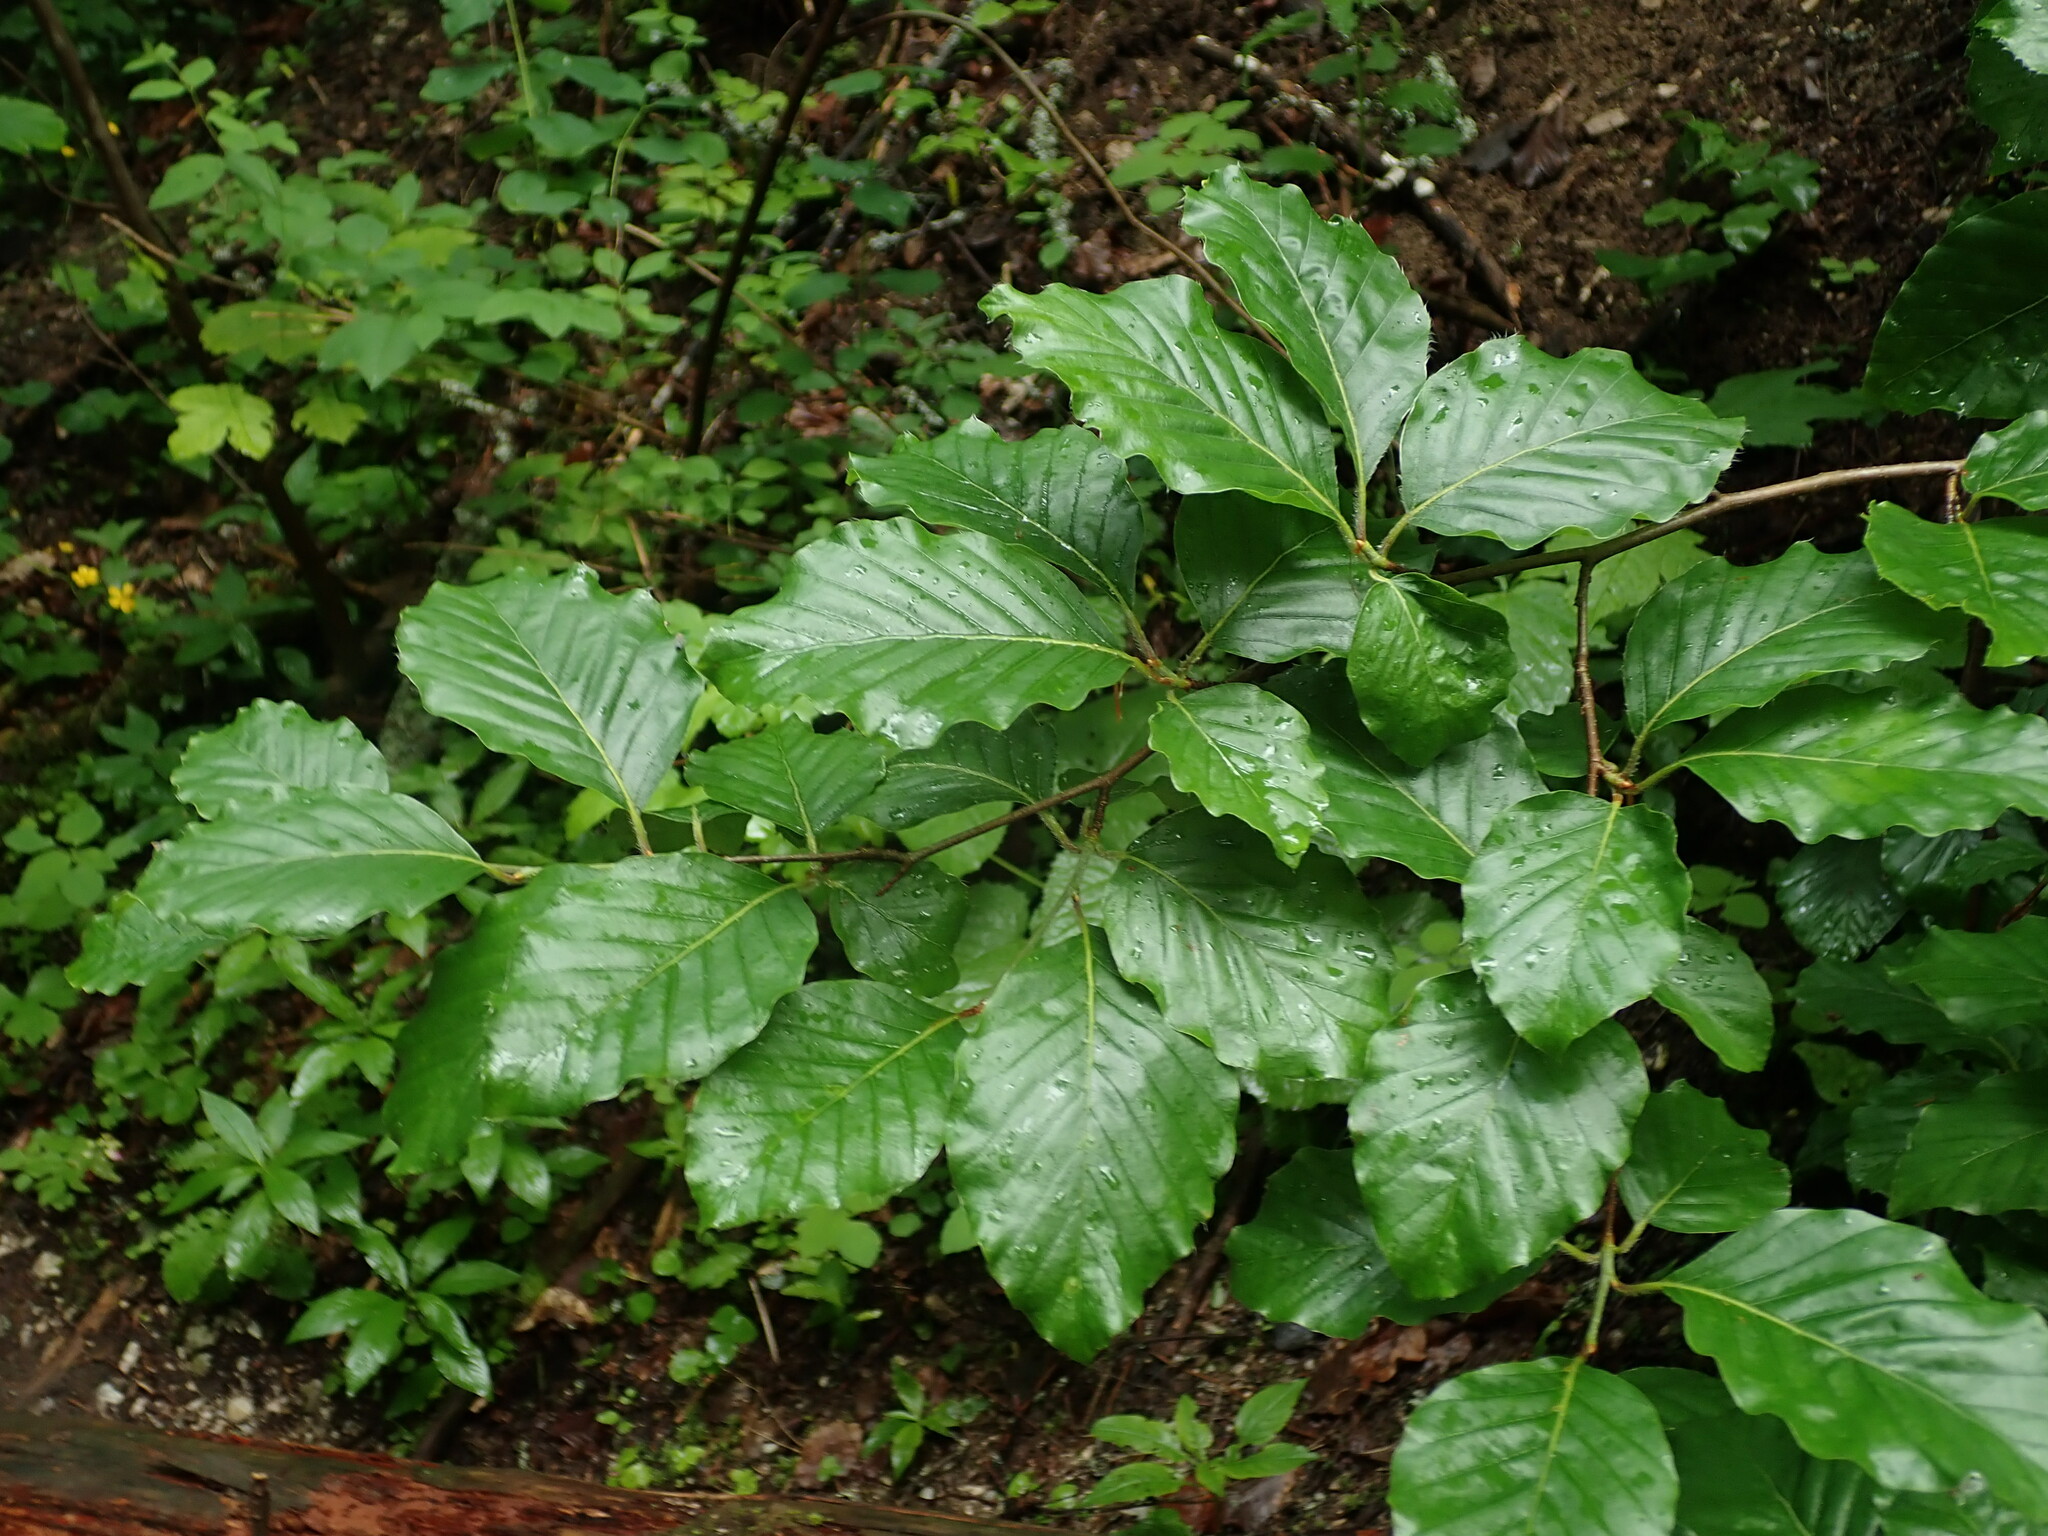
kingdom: Plantae
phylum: Tracheophyta
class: Magnoliopsida
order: Fagales
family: Fagaceae
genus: Fagus
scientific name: Fagus sylvatica
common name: Beech
